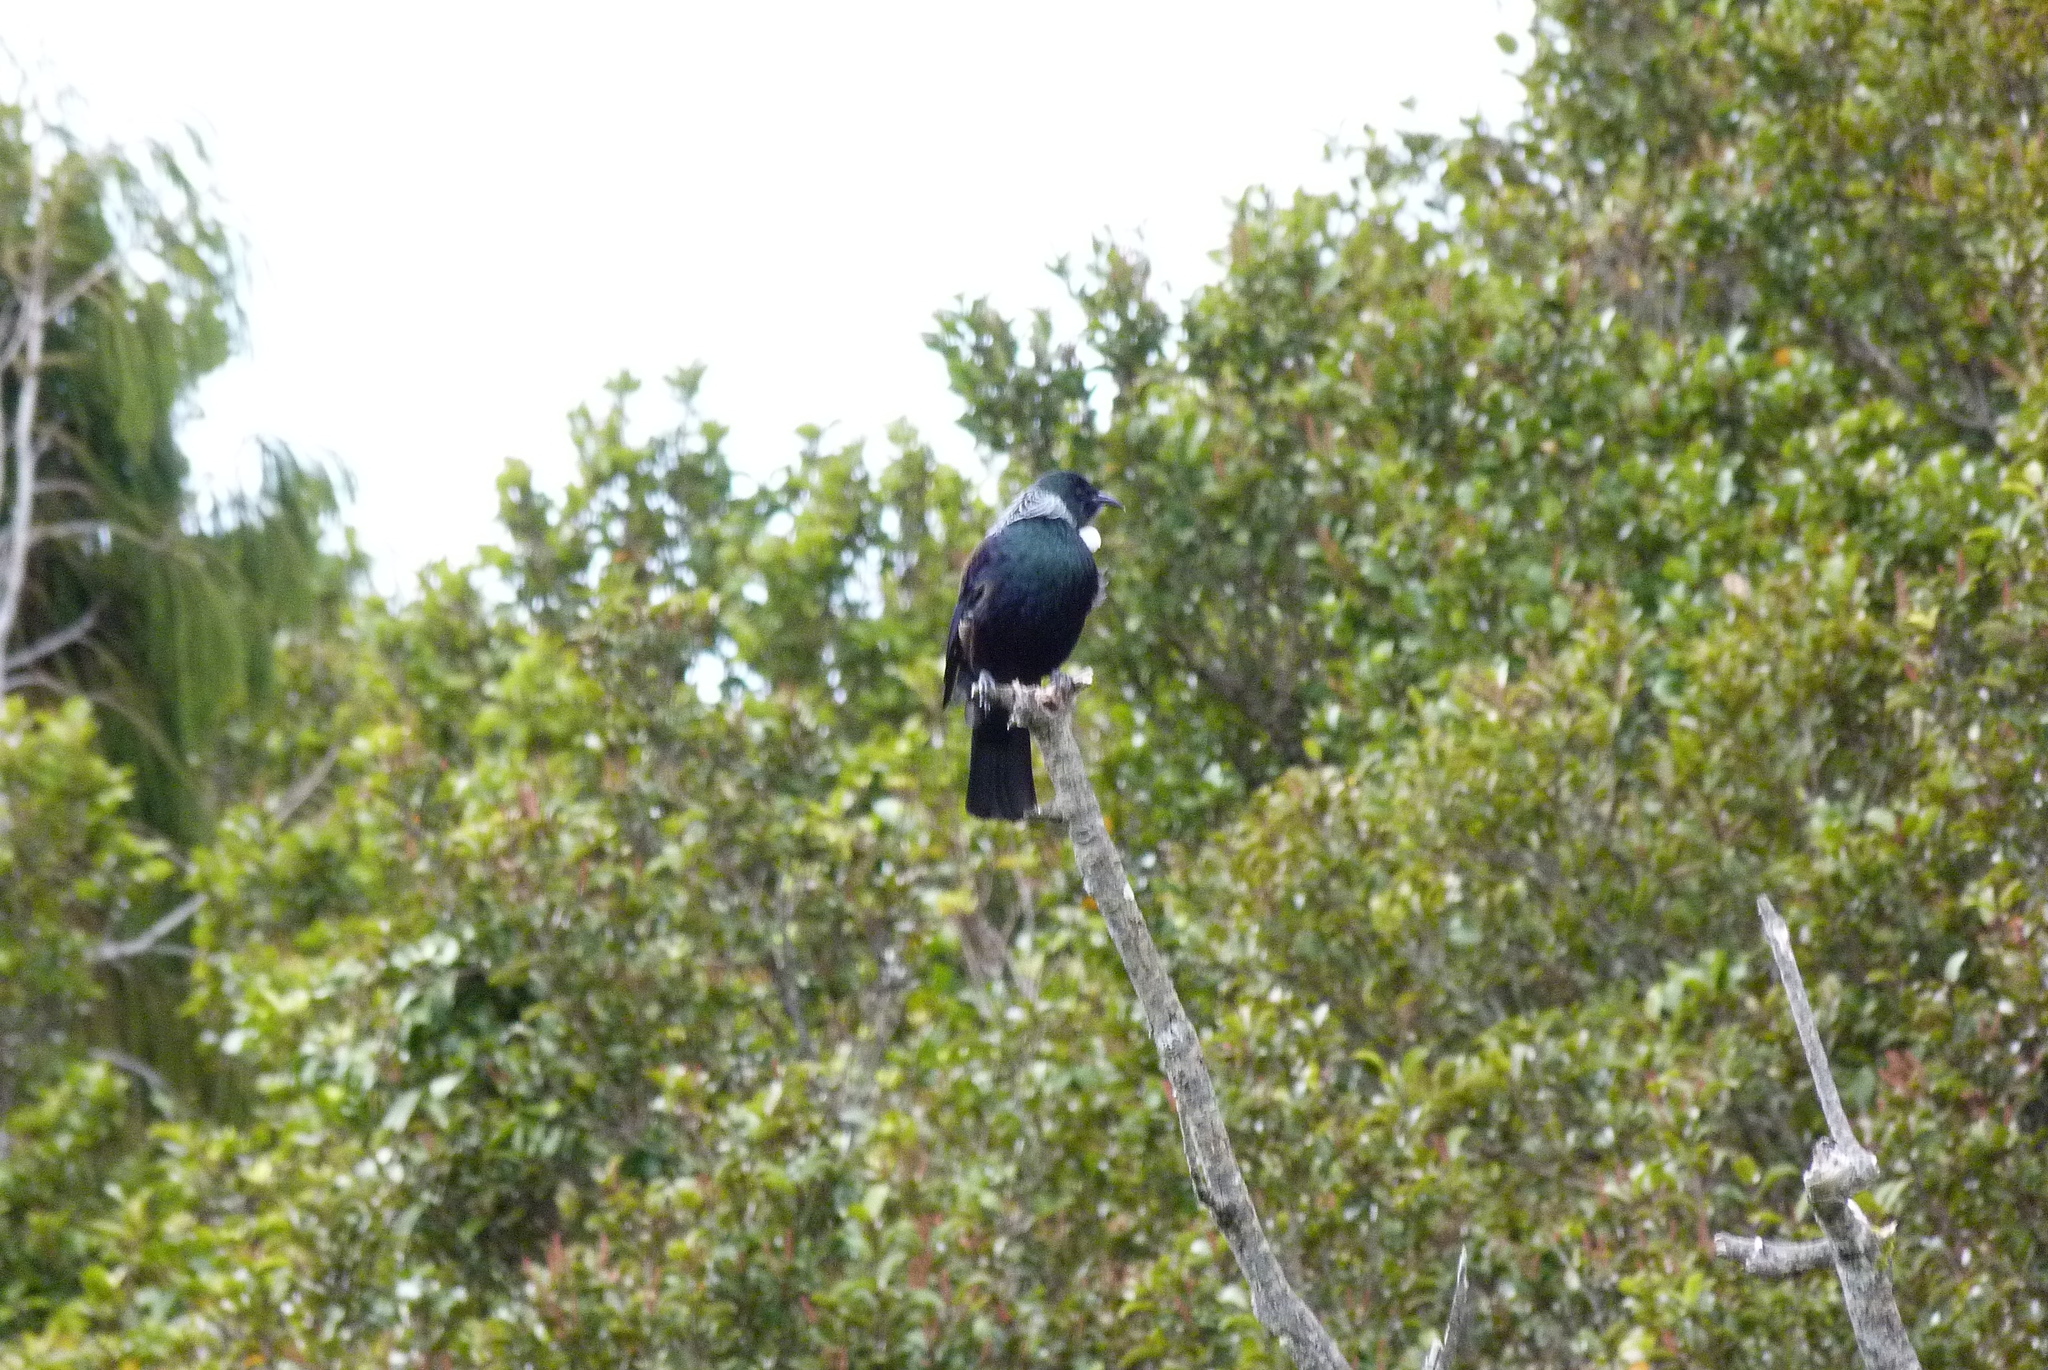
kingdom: Animalia
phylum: Chordata
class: Aves
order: Passeriformes
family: Meliphagidae
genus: Prosthemadera
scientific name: Prosthemadera novaeseelandiae
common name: Tui
